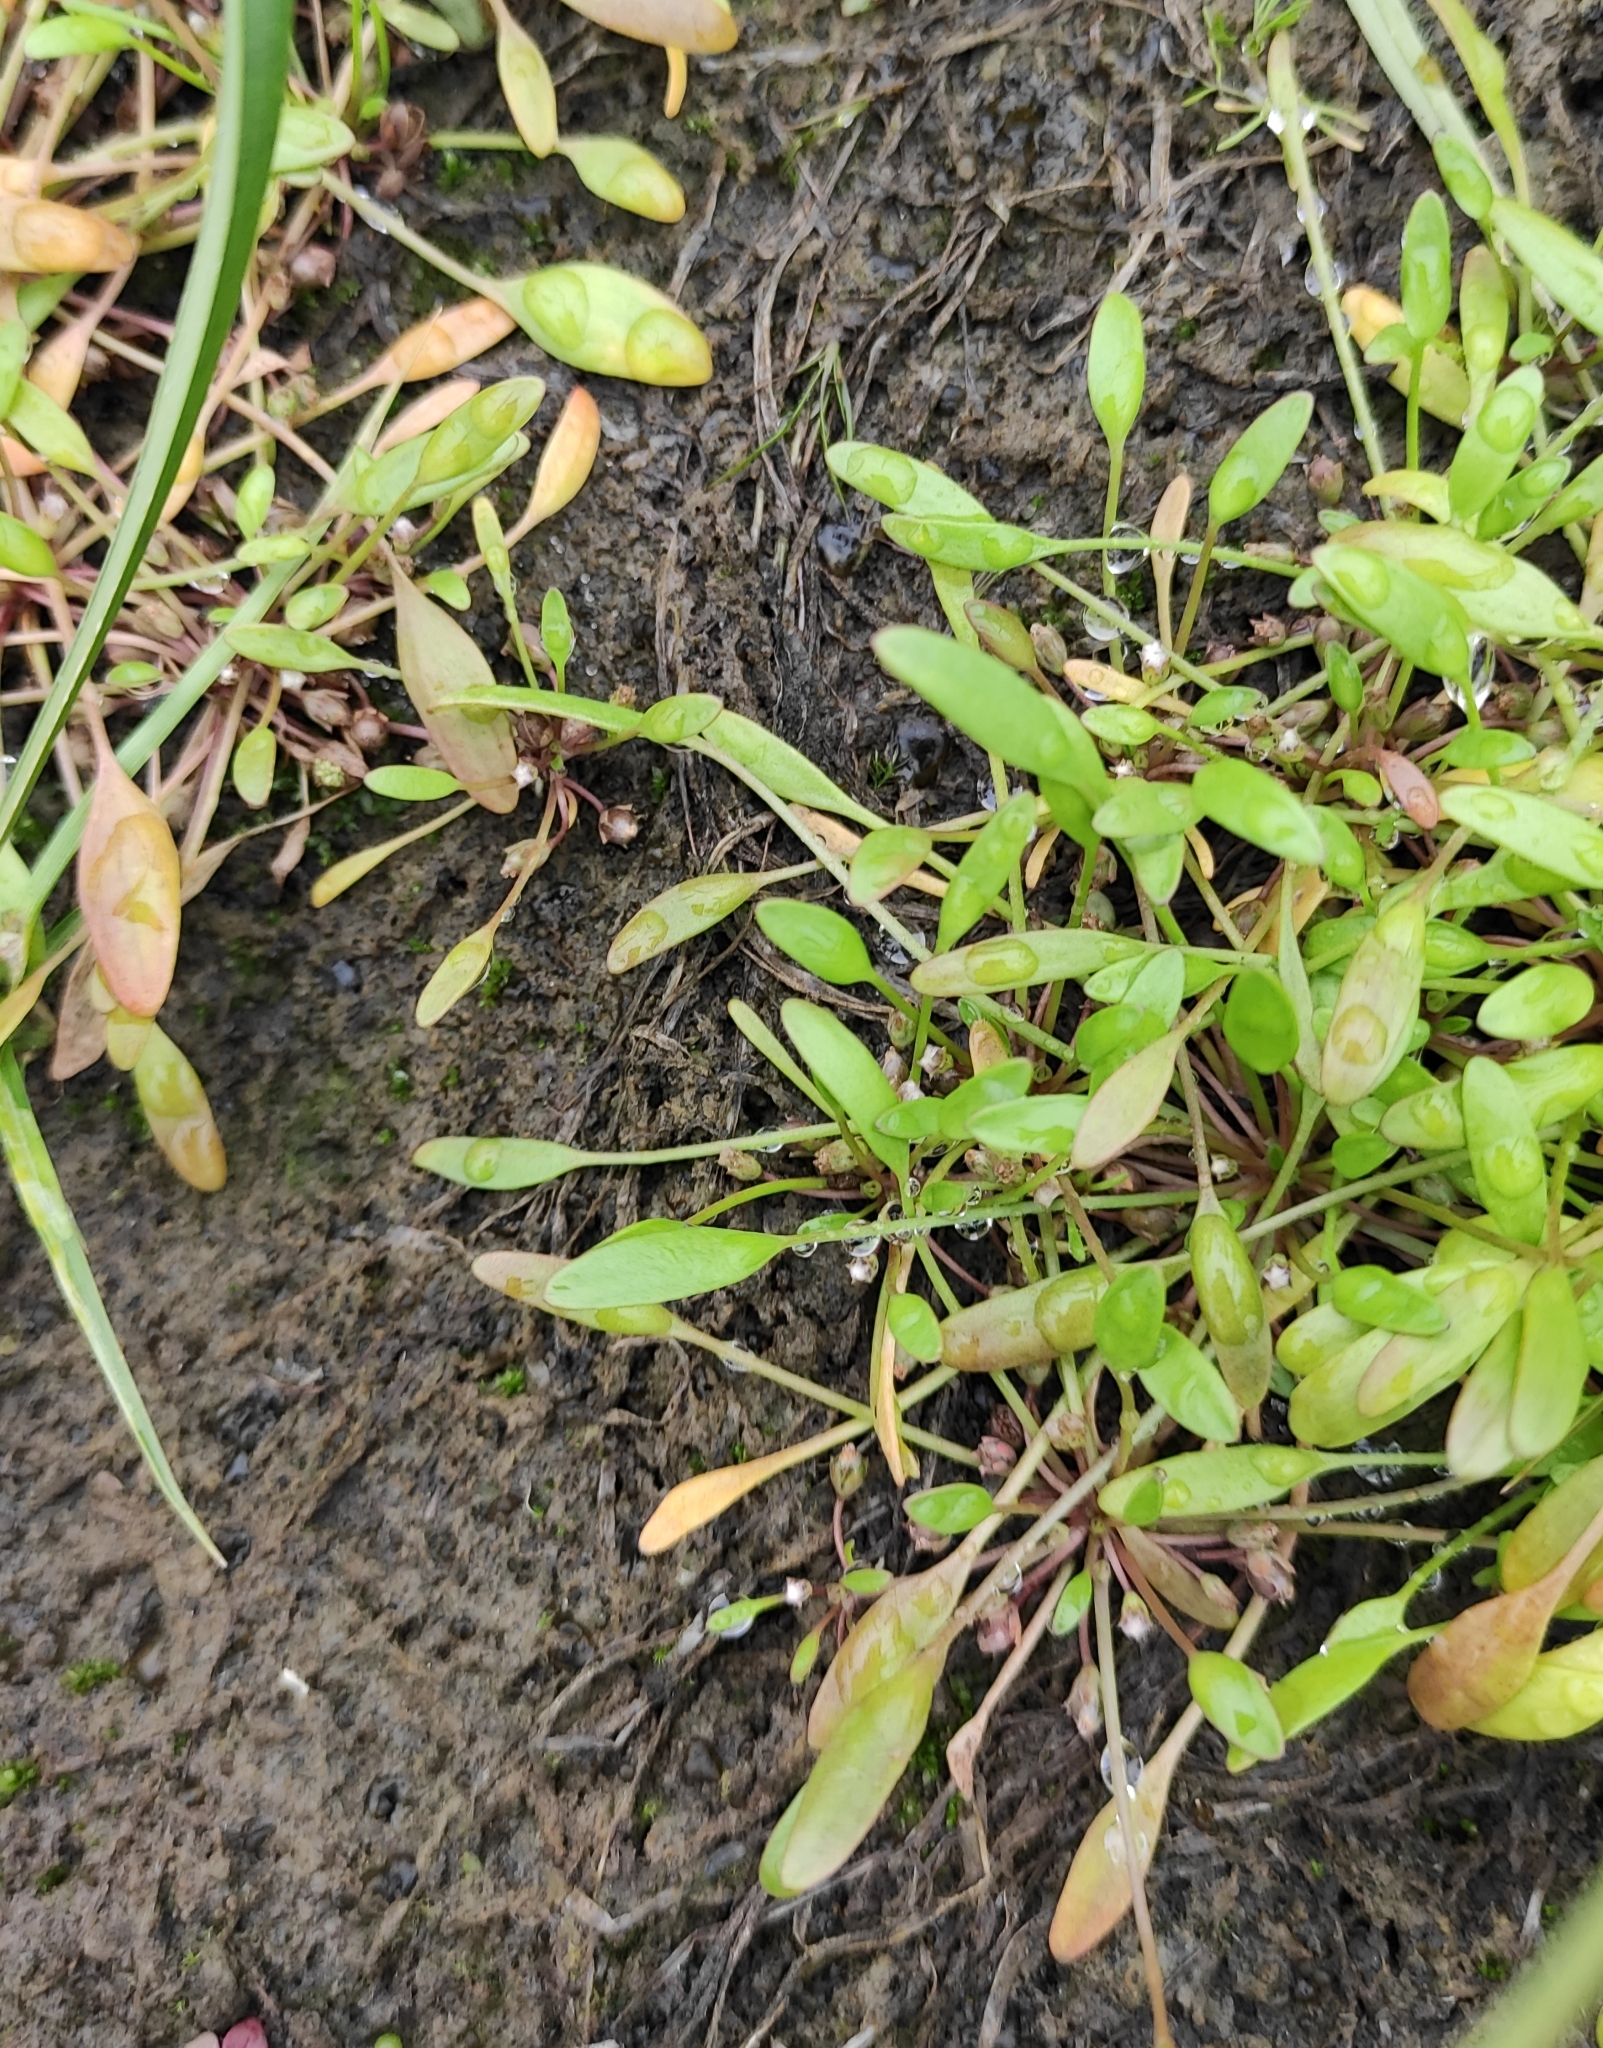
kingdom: Plantae
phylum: Tracheophyta
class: Magnoliopsida
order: Lamiales
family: Scrophulariaceae
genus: Limosella
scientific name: Limosella aquatica
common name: Mudwort
